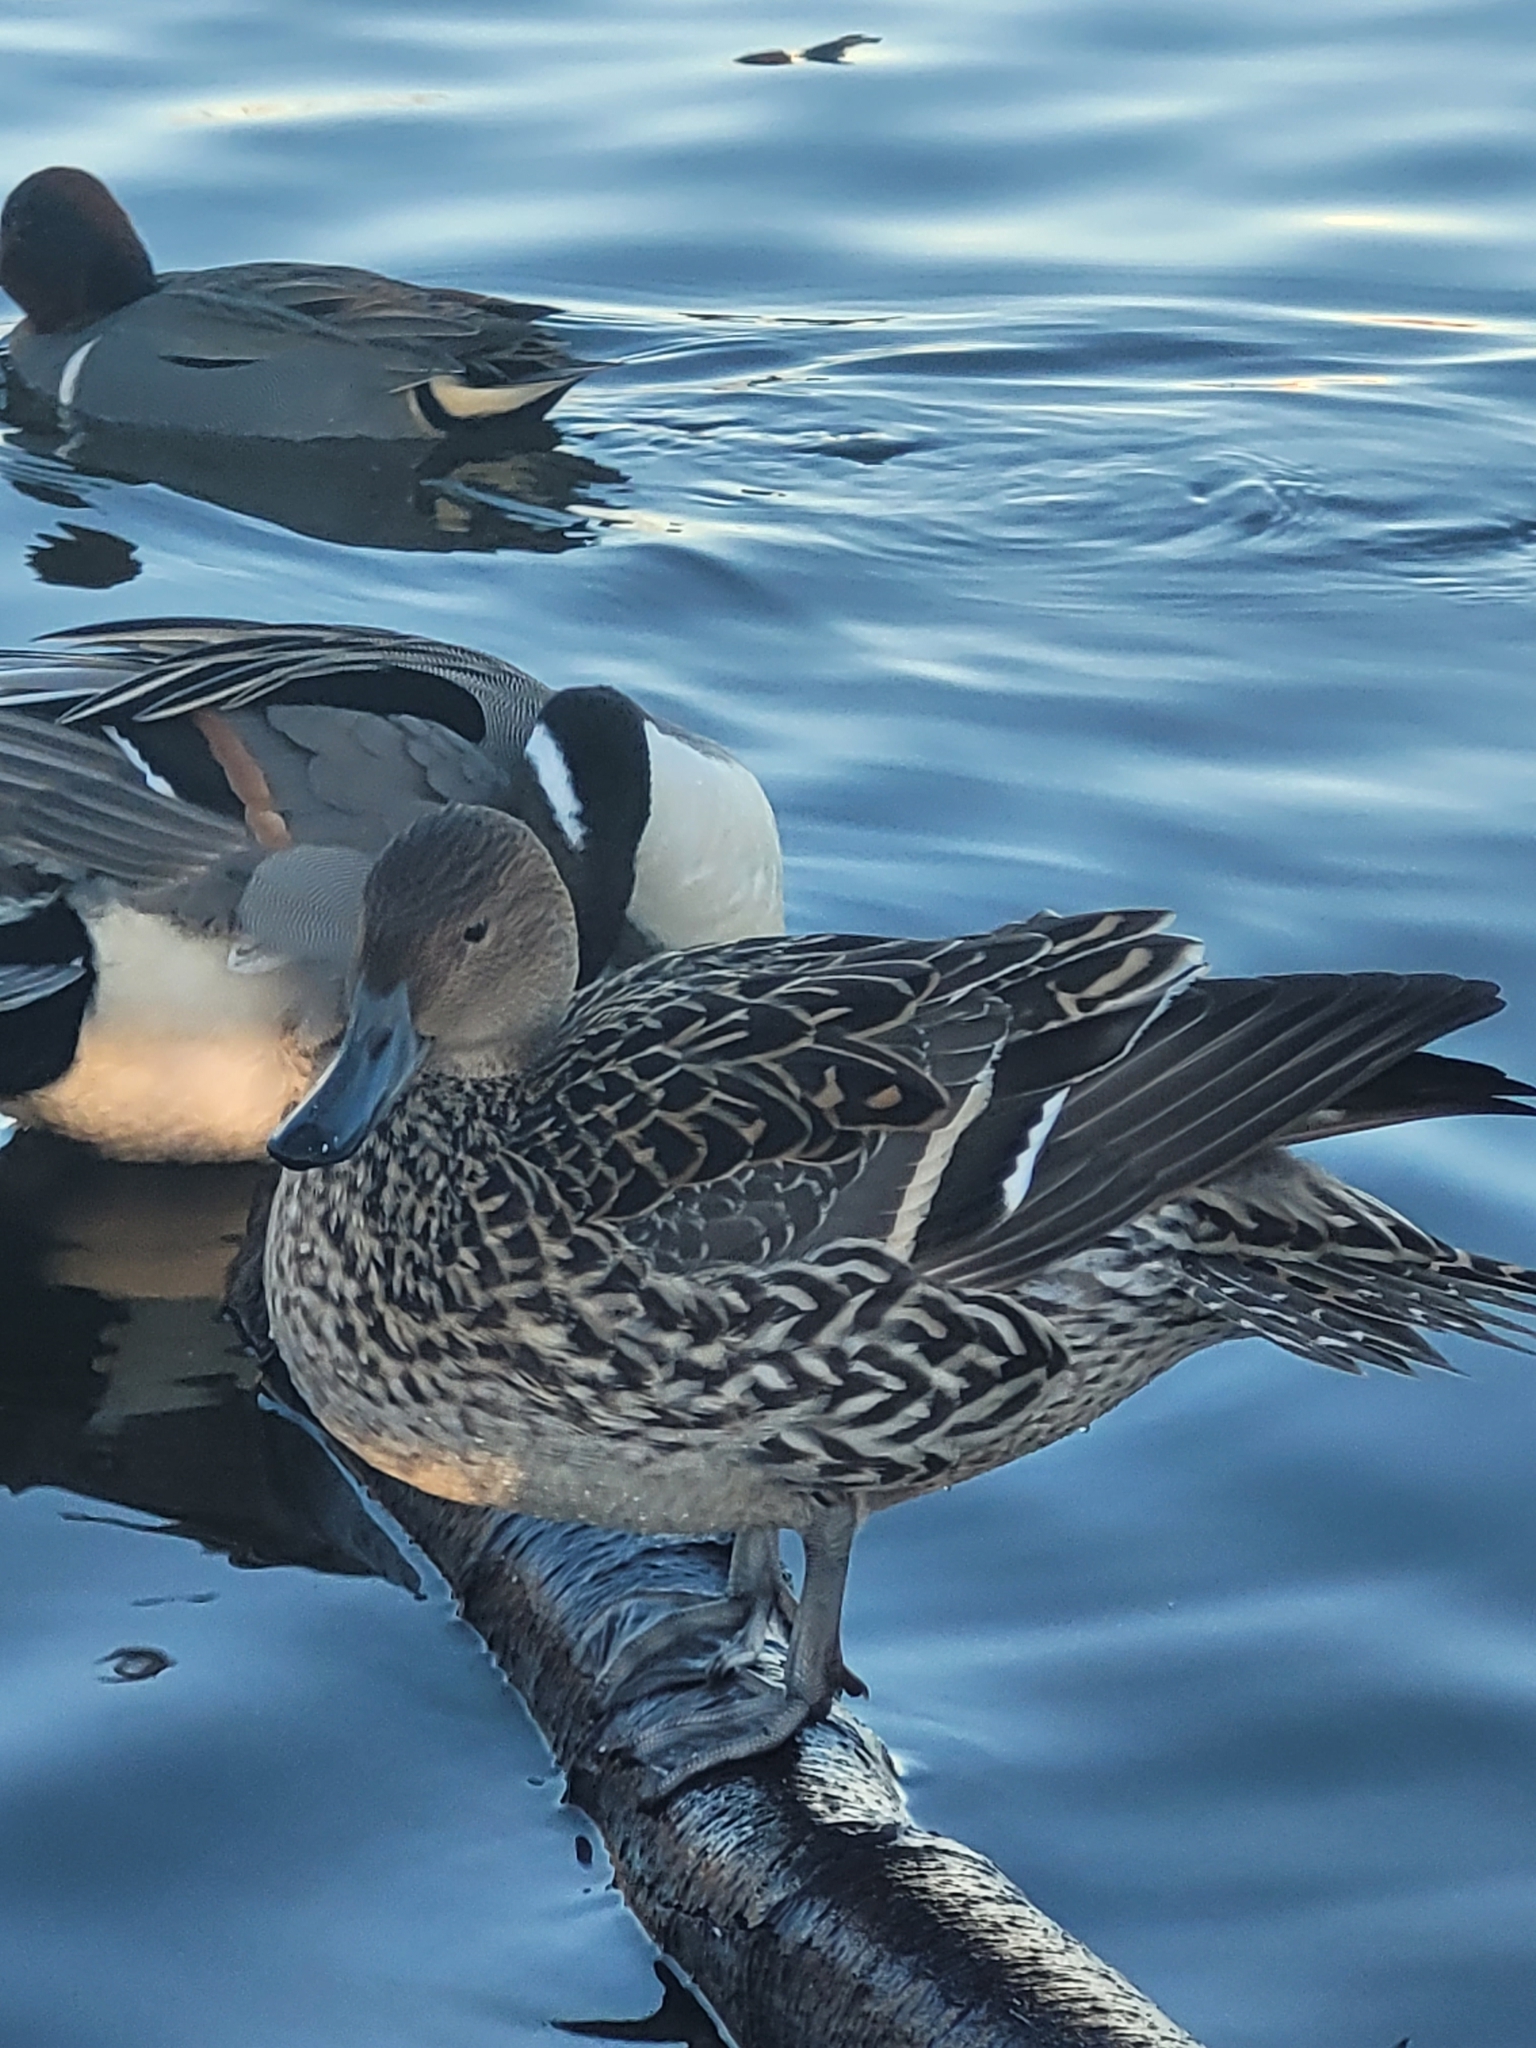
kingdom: Animalia
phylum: Chordata
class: Aves
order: Anseriformes
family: Anatidae
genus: Anas
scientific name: Anas acuta
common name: Northern pintail
